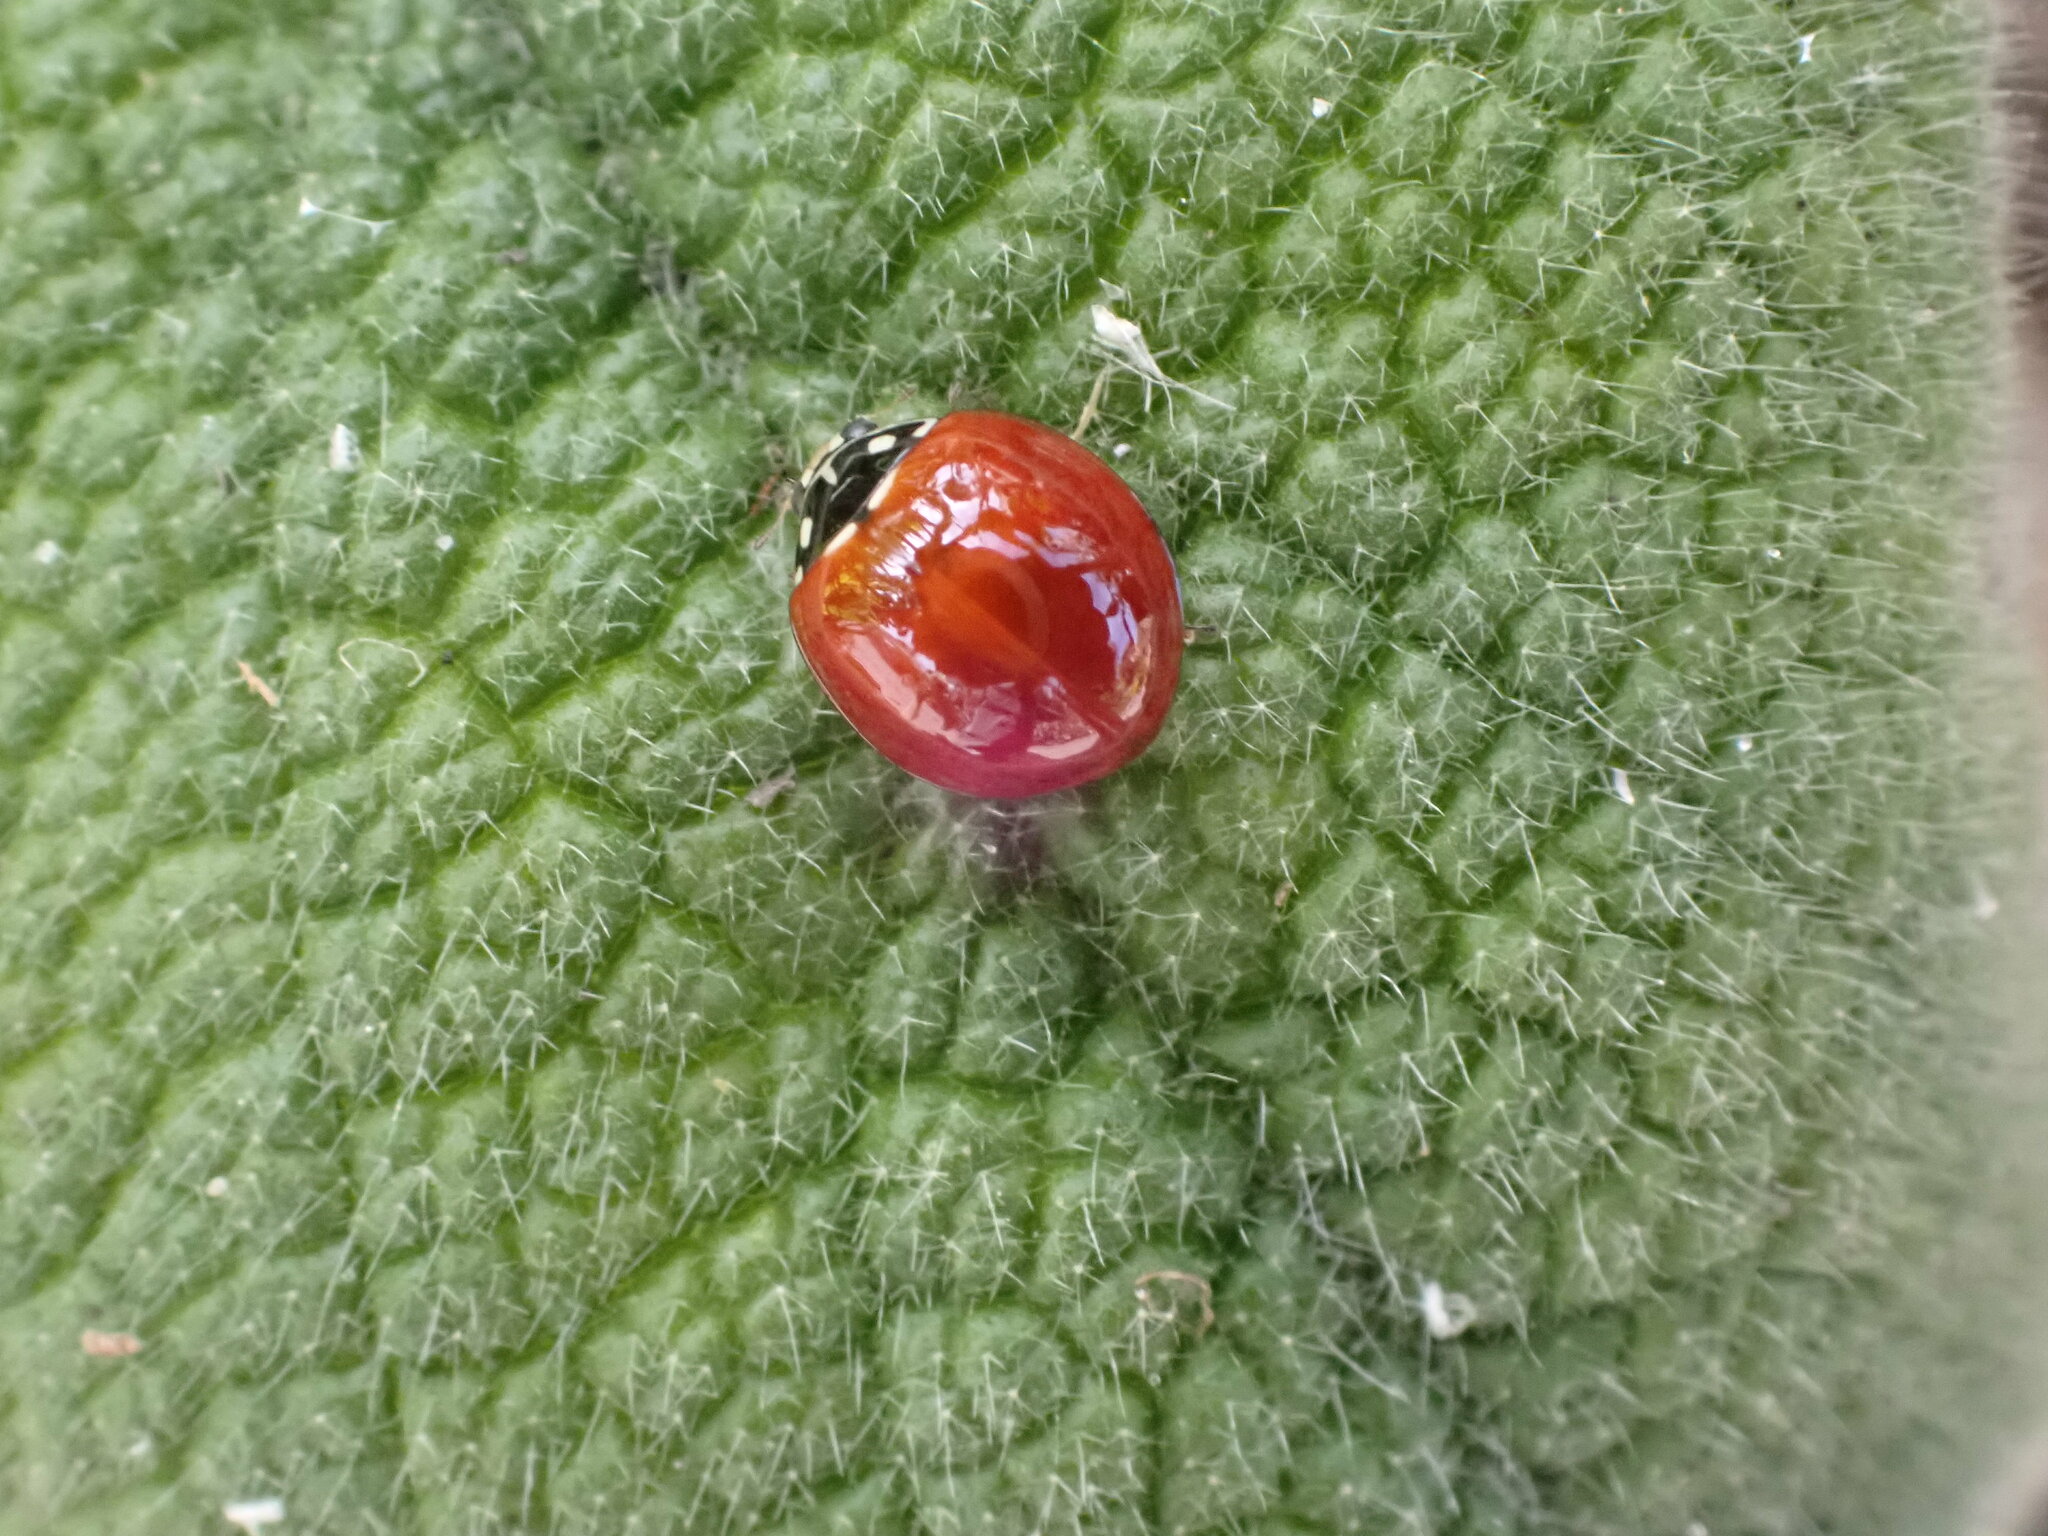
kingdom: Animalia
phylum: Arthropoda
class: Insecta
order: Coleoptera
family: Coccinellidae
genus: Cycloneda
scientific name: Cycloneda sanguinea
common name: Ladybird beetle
